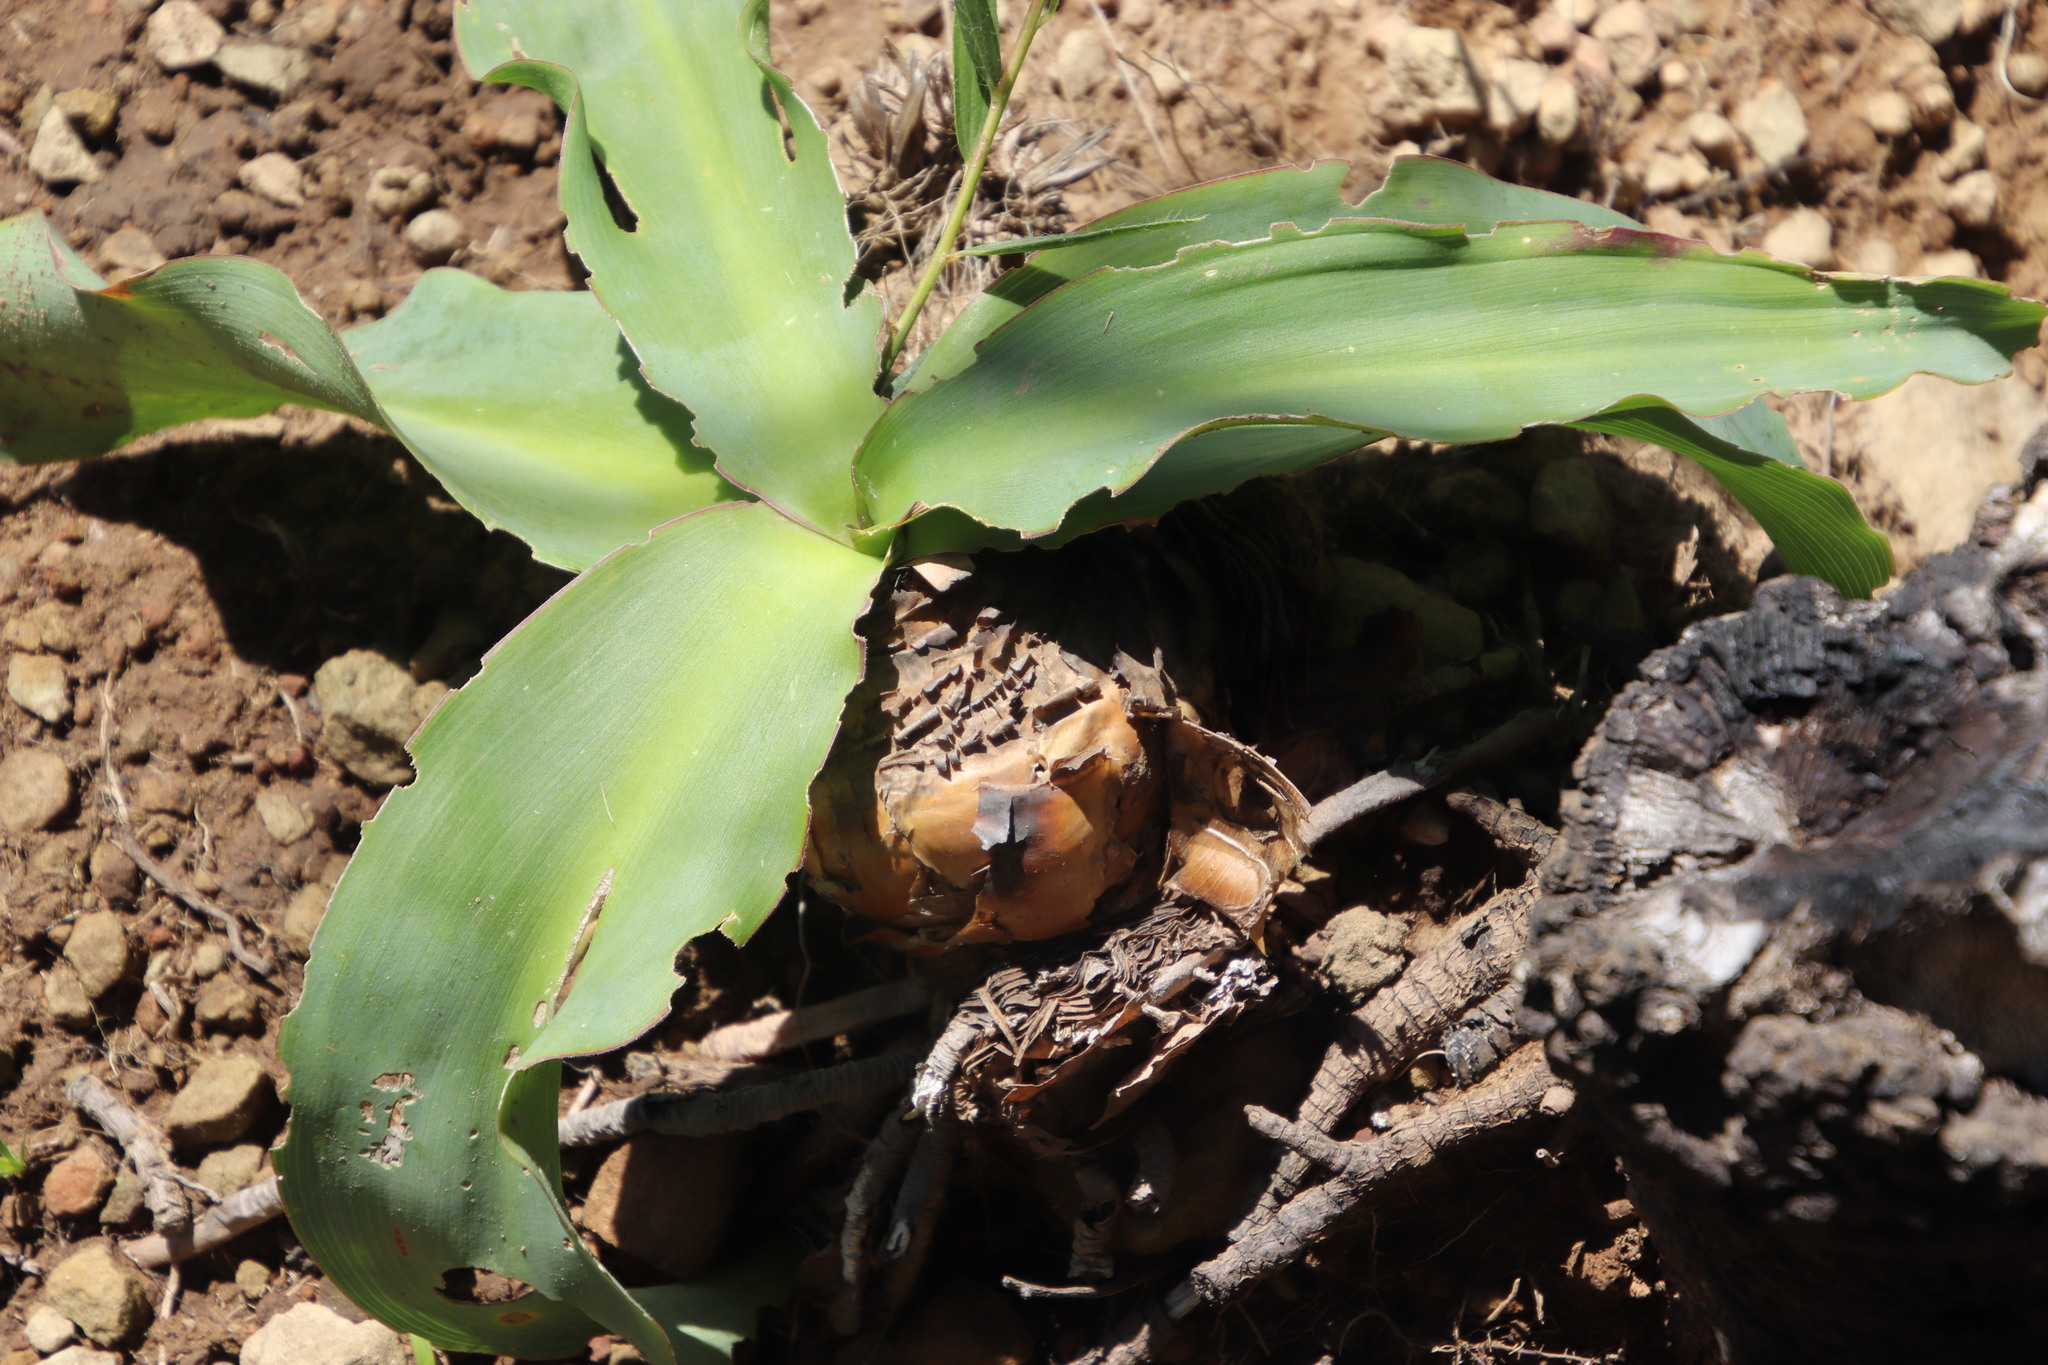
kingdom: Plantae
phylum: Tracheophyta
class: Liliopsida
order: Asparagales
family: Asparagaceae
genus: Merwilla
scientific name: Merwilla plumbea
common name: Blue-squill
